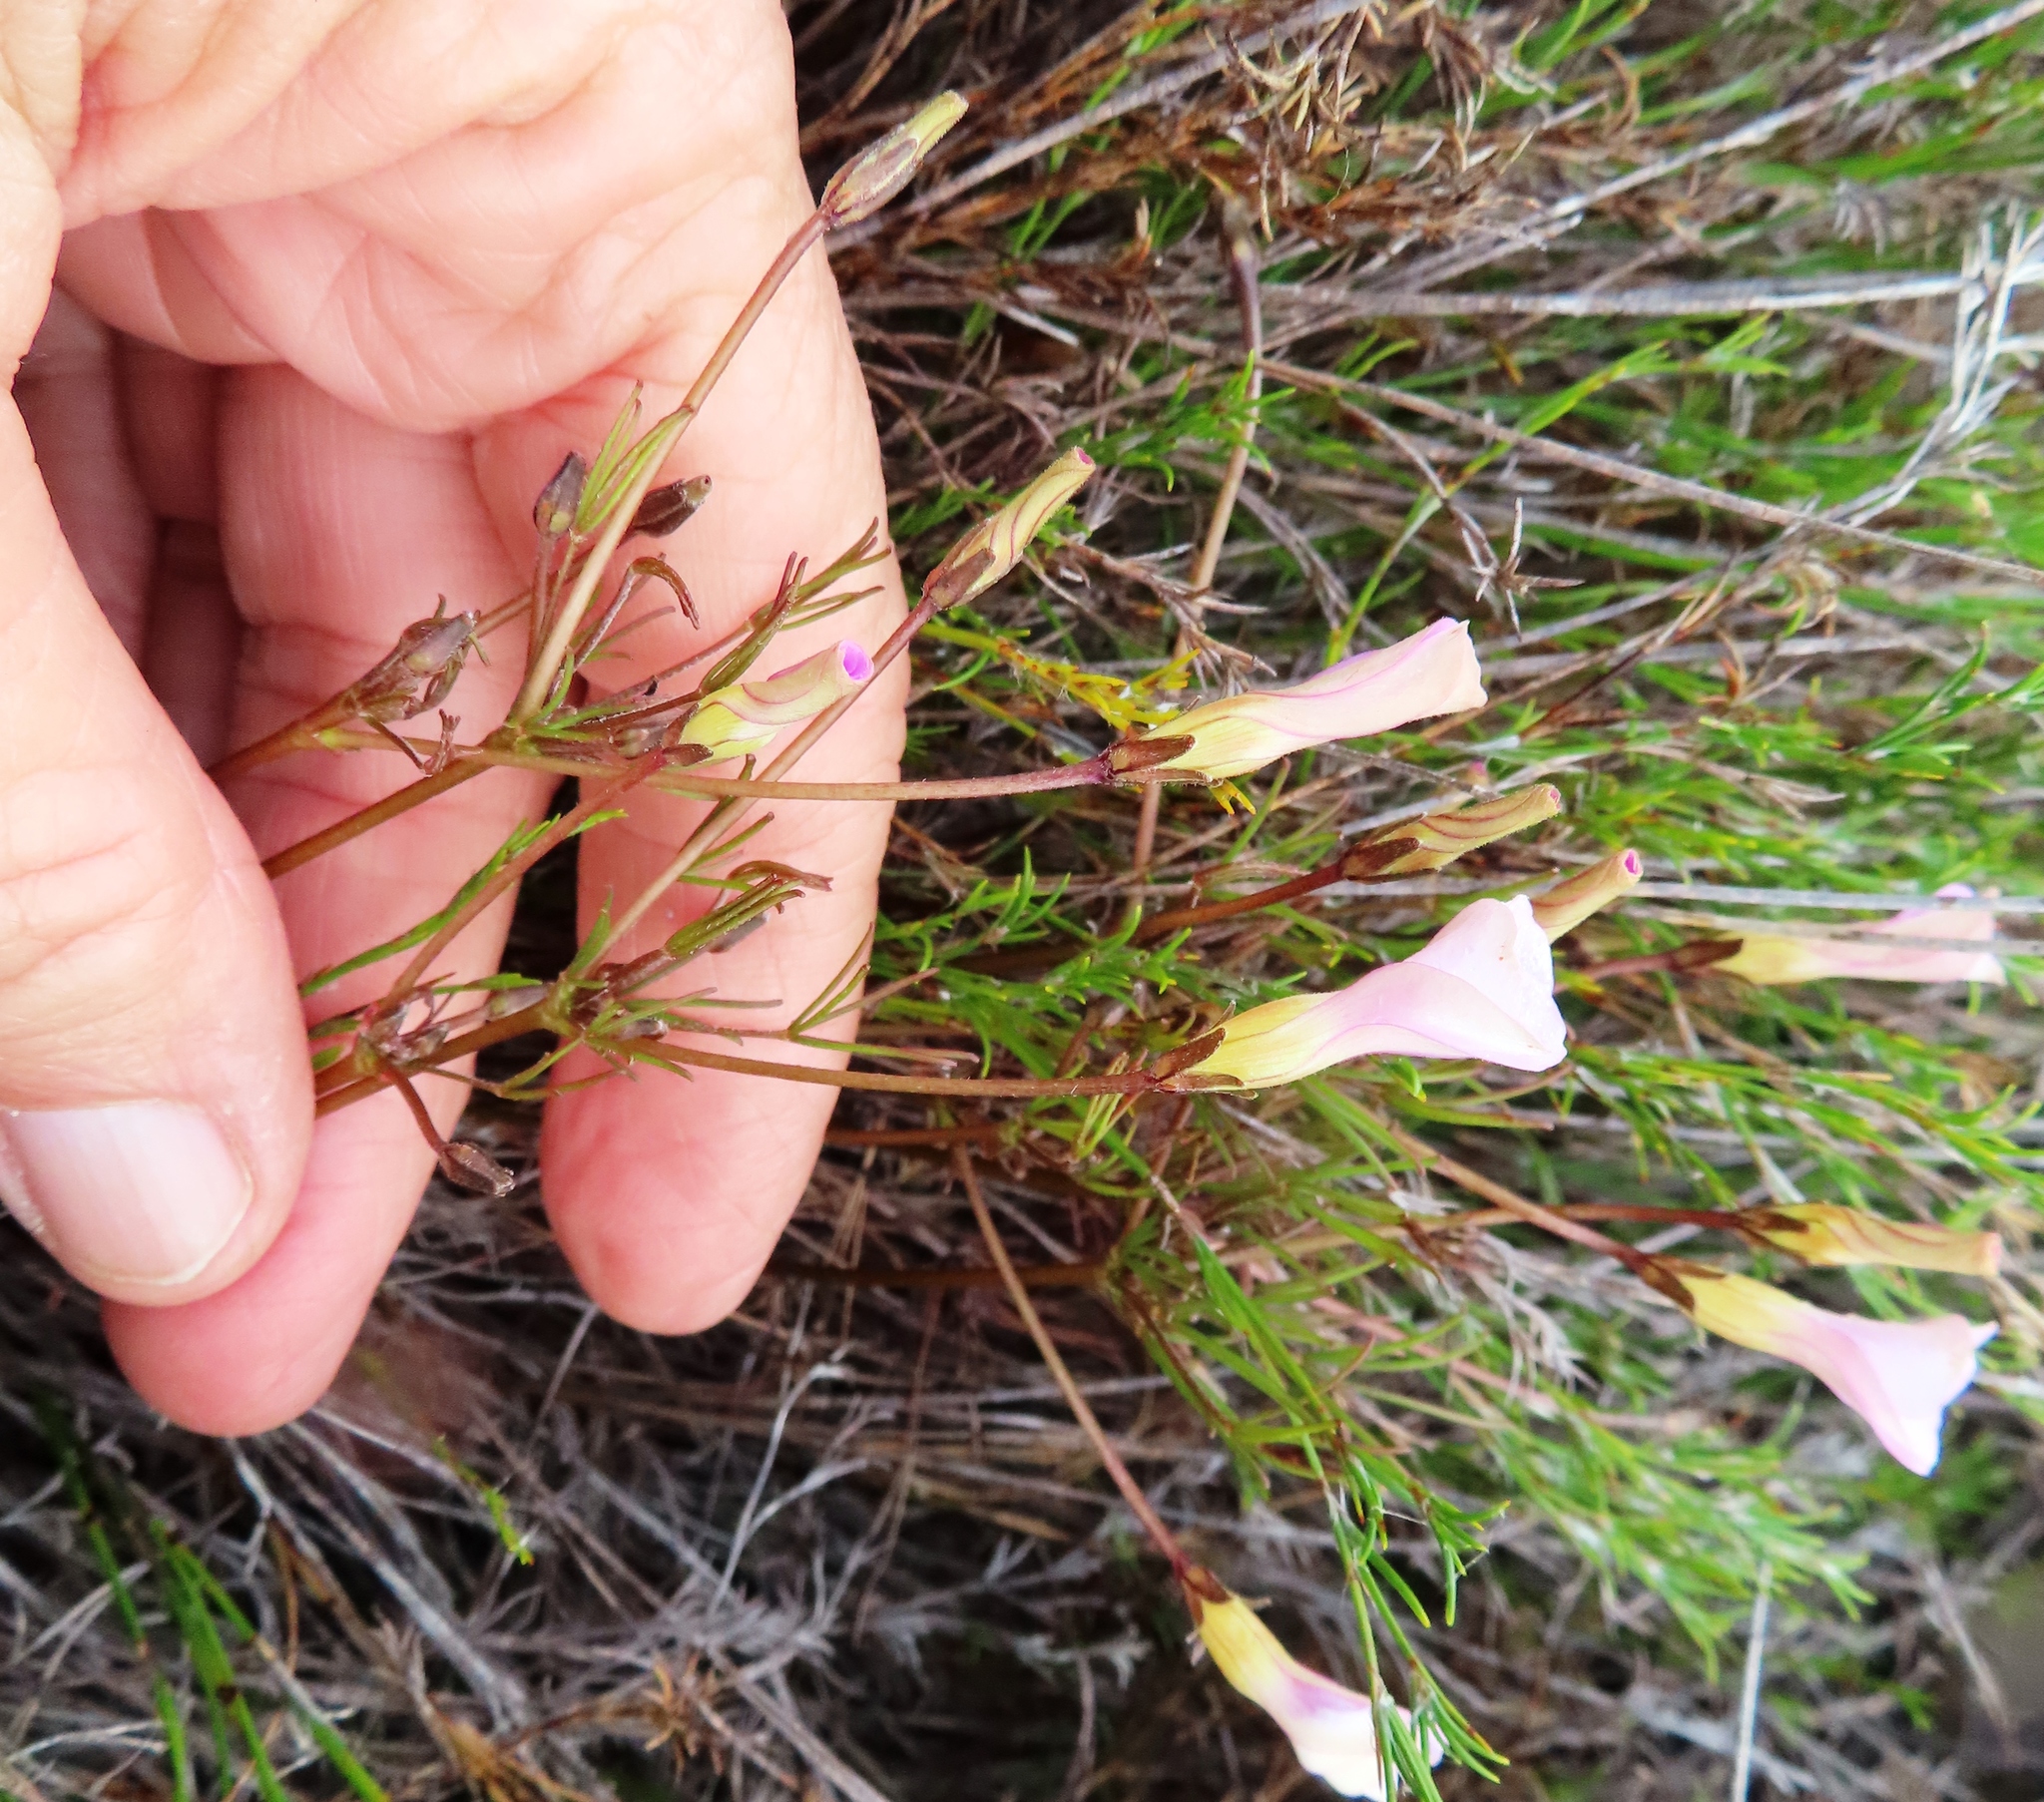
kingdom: Plantae
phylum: Tracheophyta
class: Magnoliopsida
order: Oxalidales
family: Oxalidaceae
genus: Oxalis
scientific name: Oxalis polyphylla
